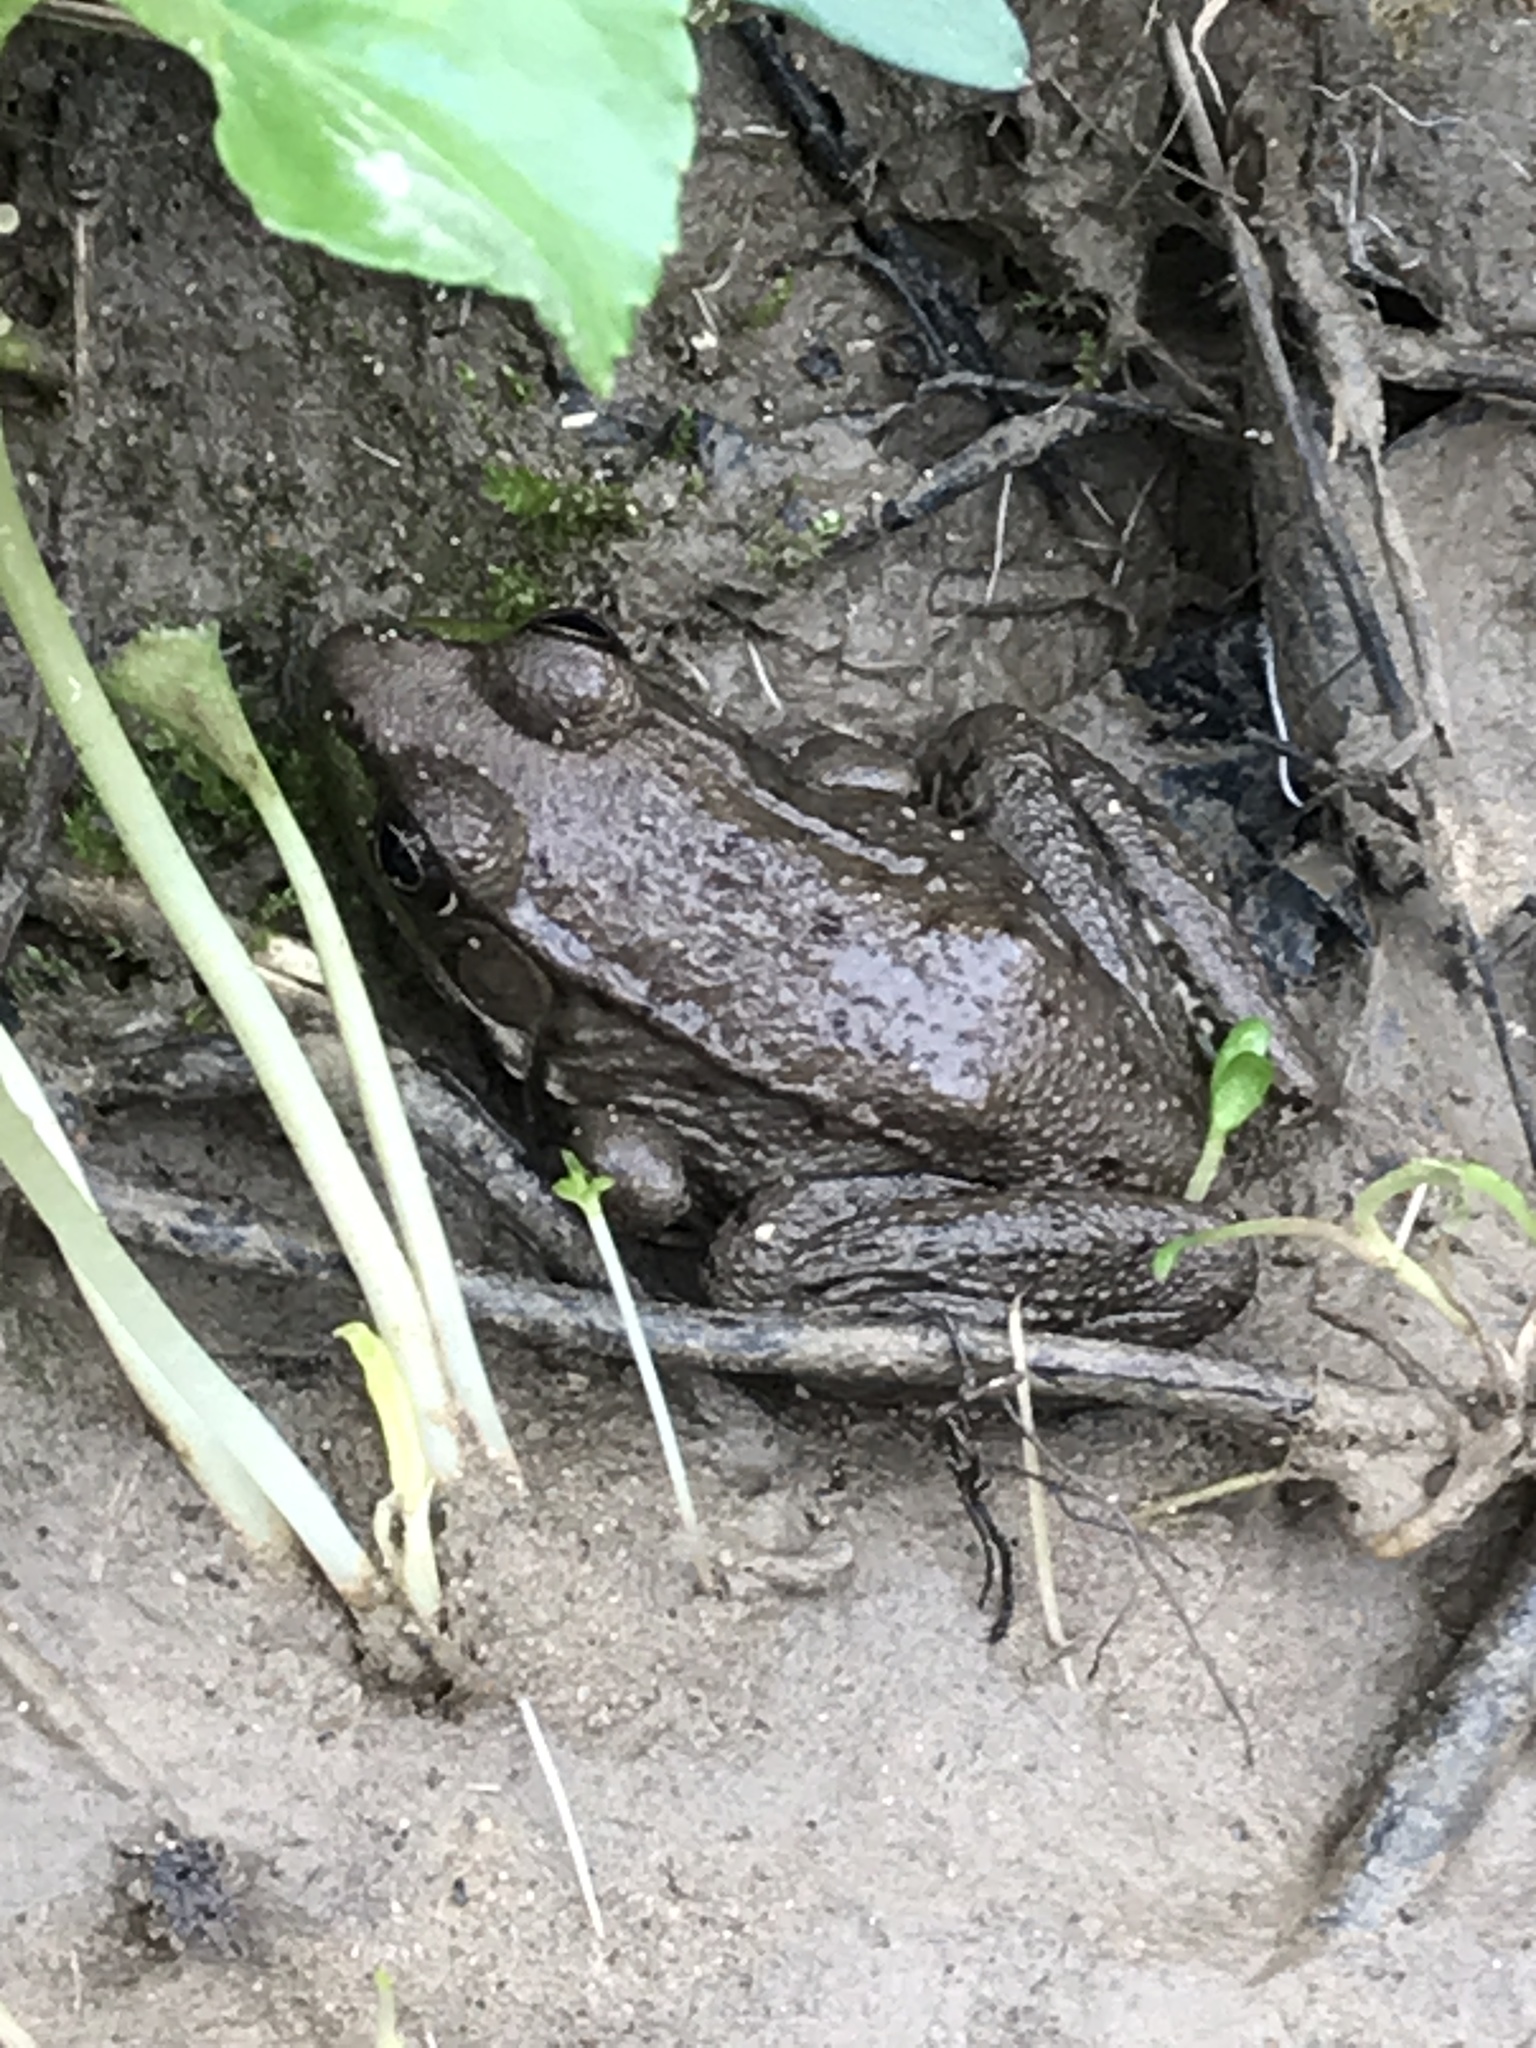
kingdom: Animalia
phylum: Chordata
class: Amphibia
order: Anura
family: Ranidae
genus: Lithobates
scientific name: Lithobates clamitans
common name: Green frog
